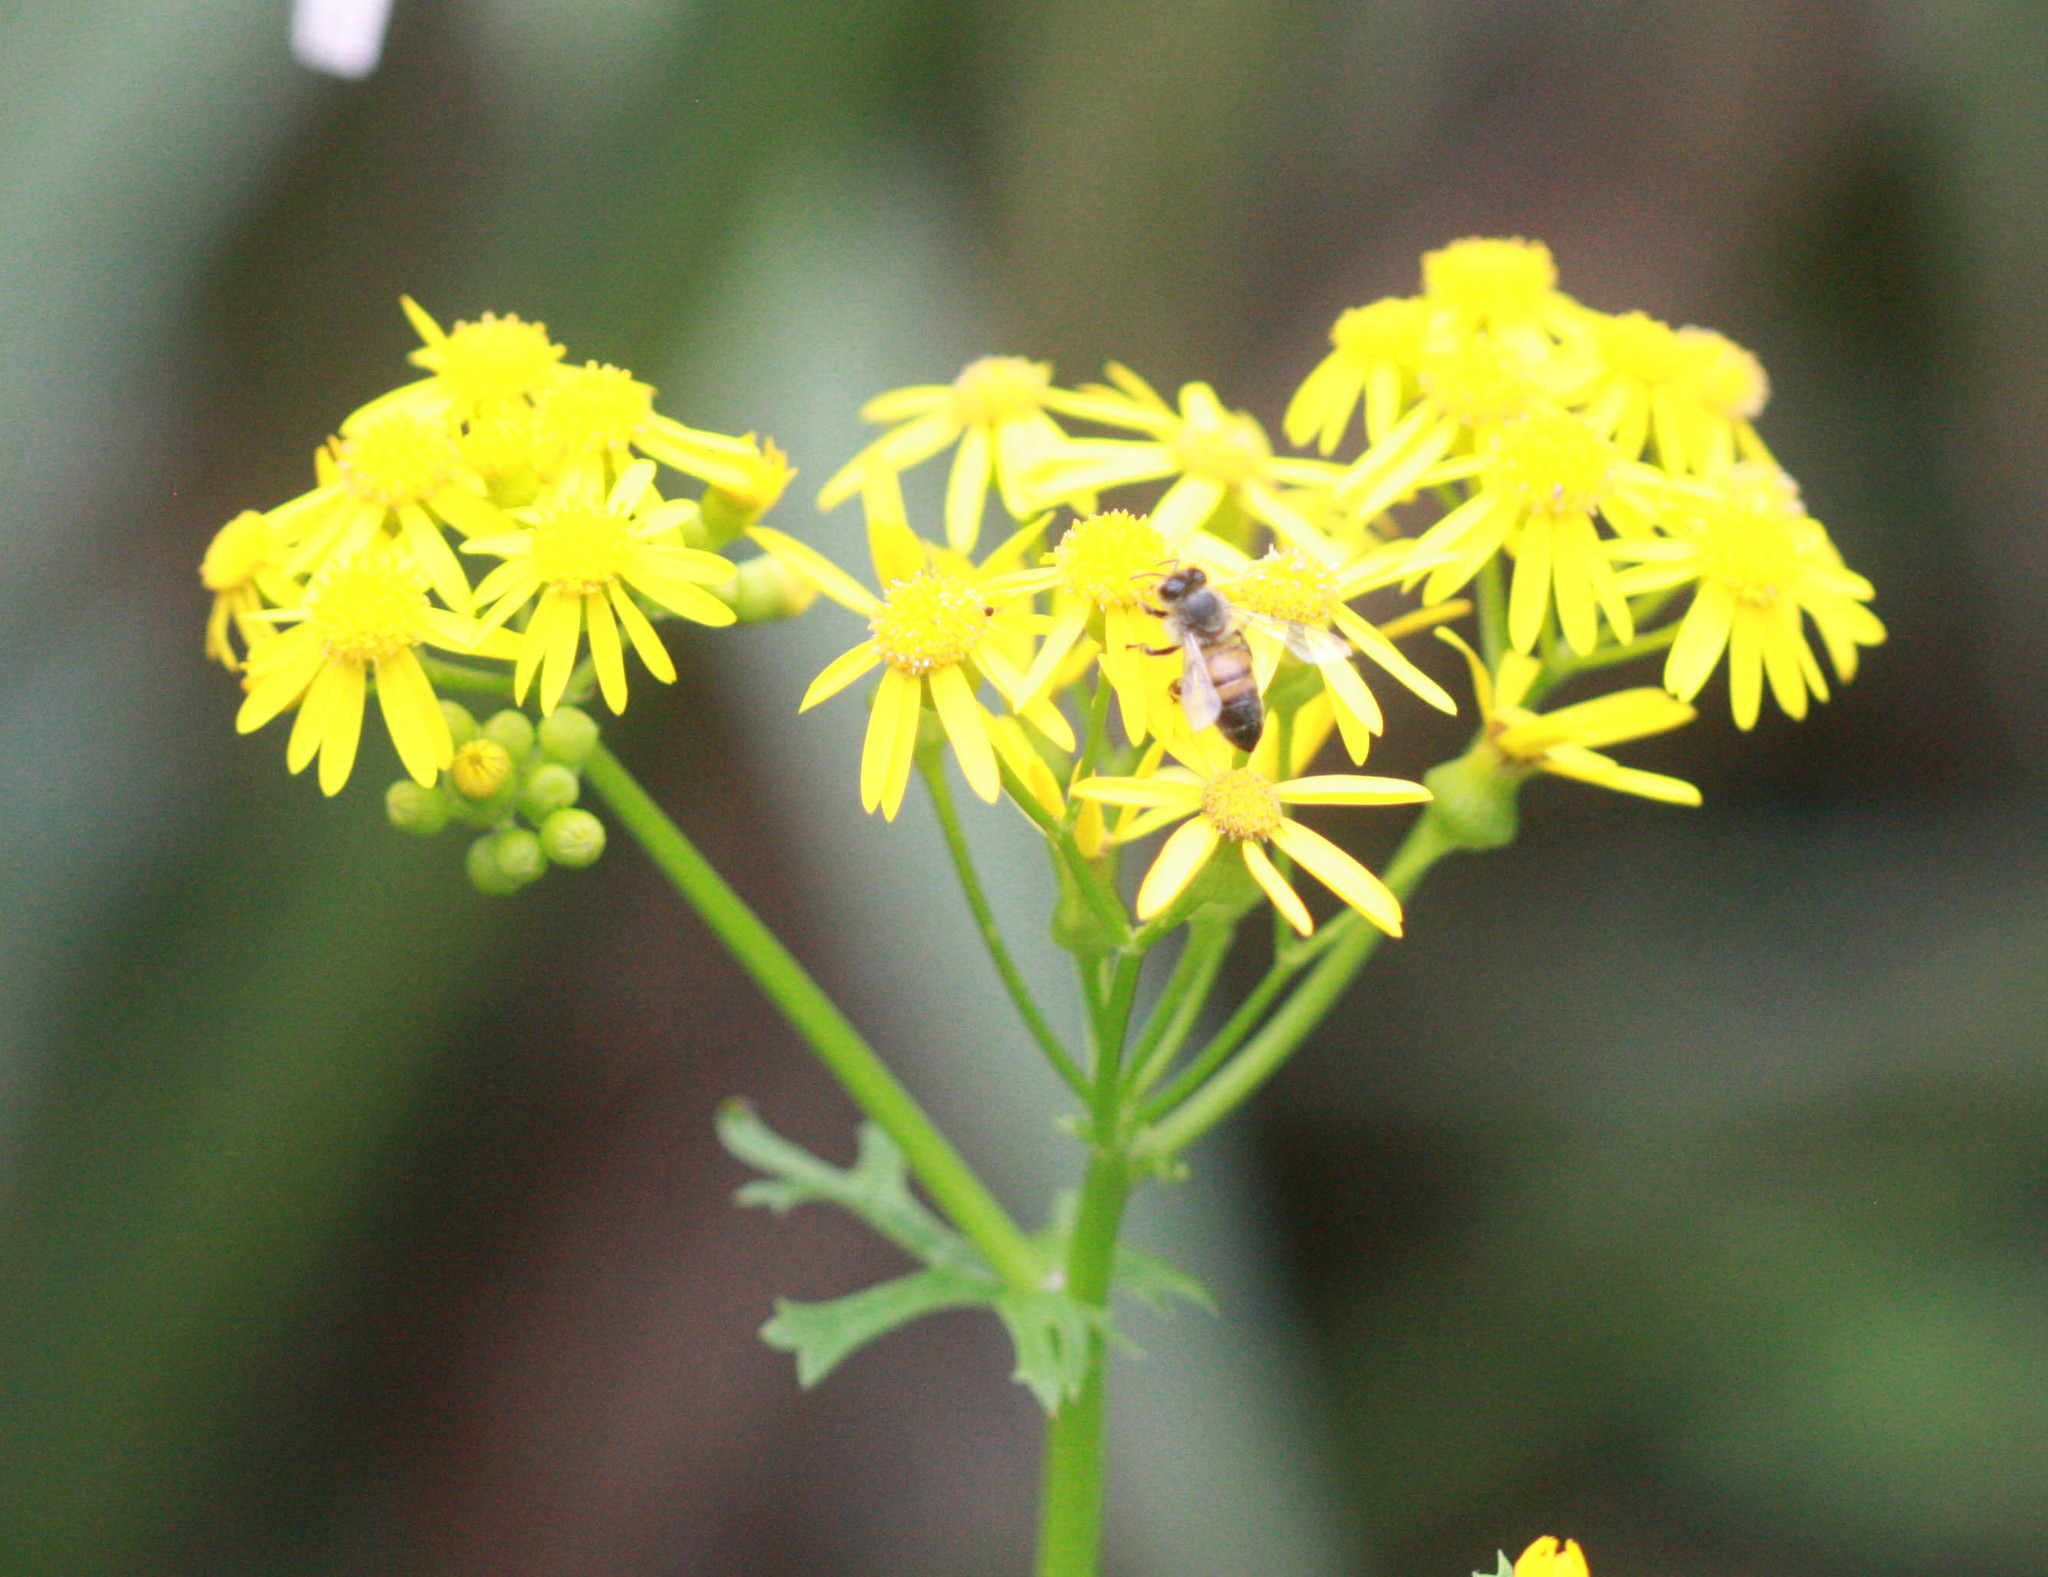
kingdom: Plantae
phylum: Tracheophyta
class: Magnoliopsida
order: Asterales
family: Asteraceae
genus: Packera
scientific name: Packera glabella
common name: Butterweed
